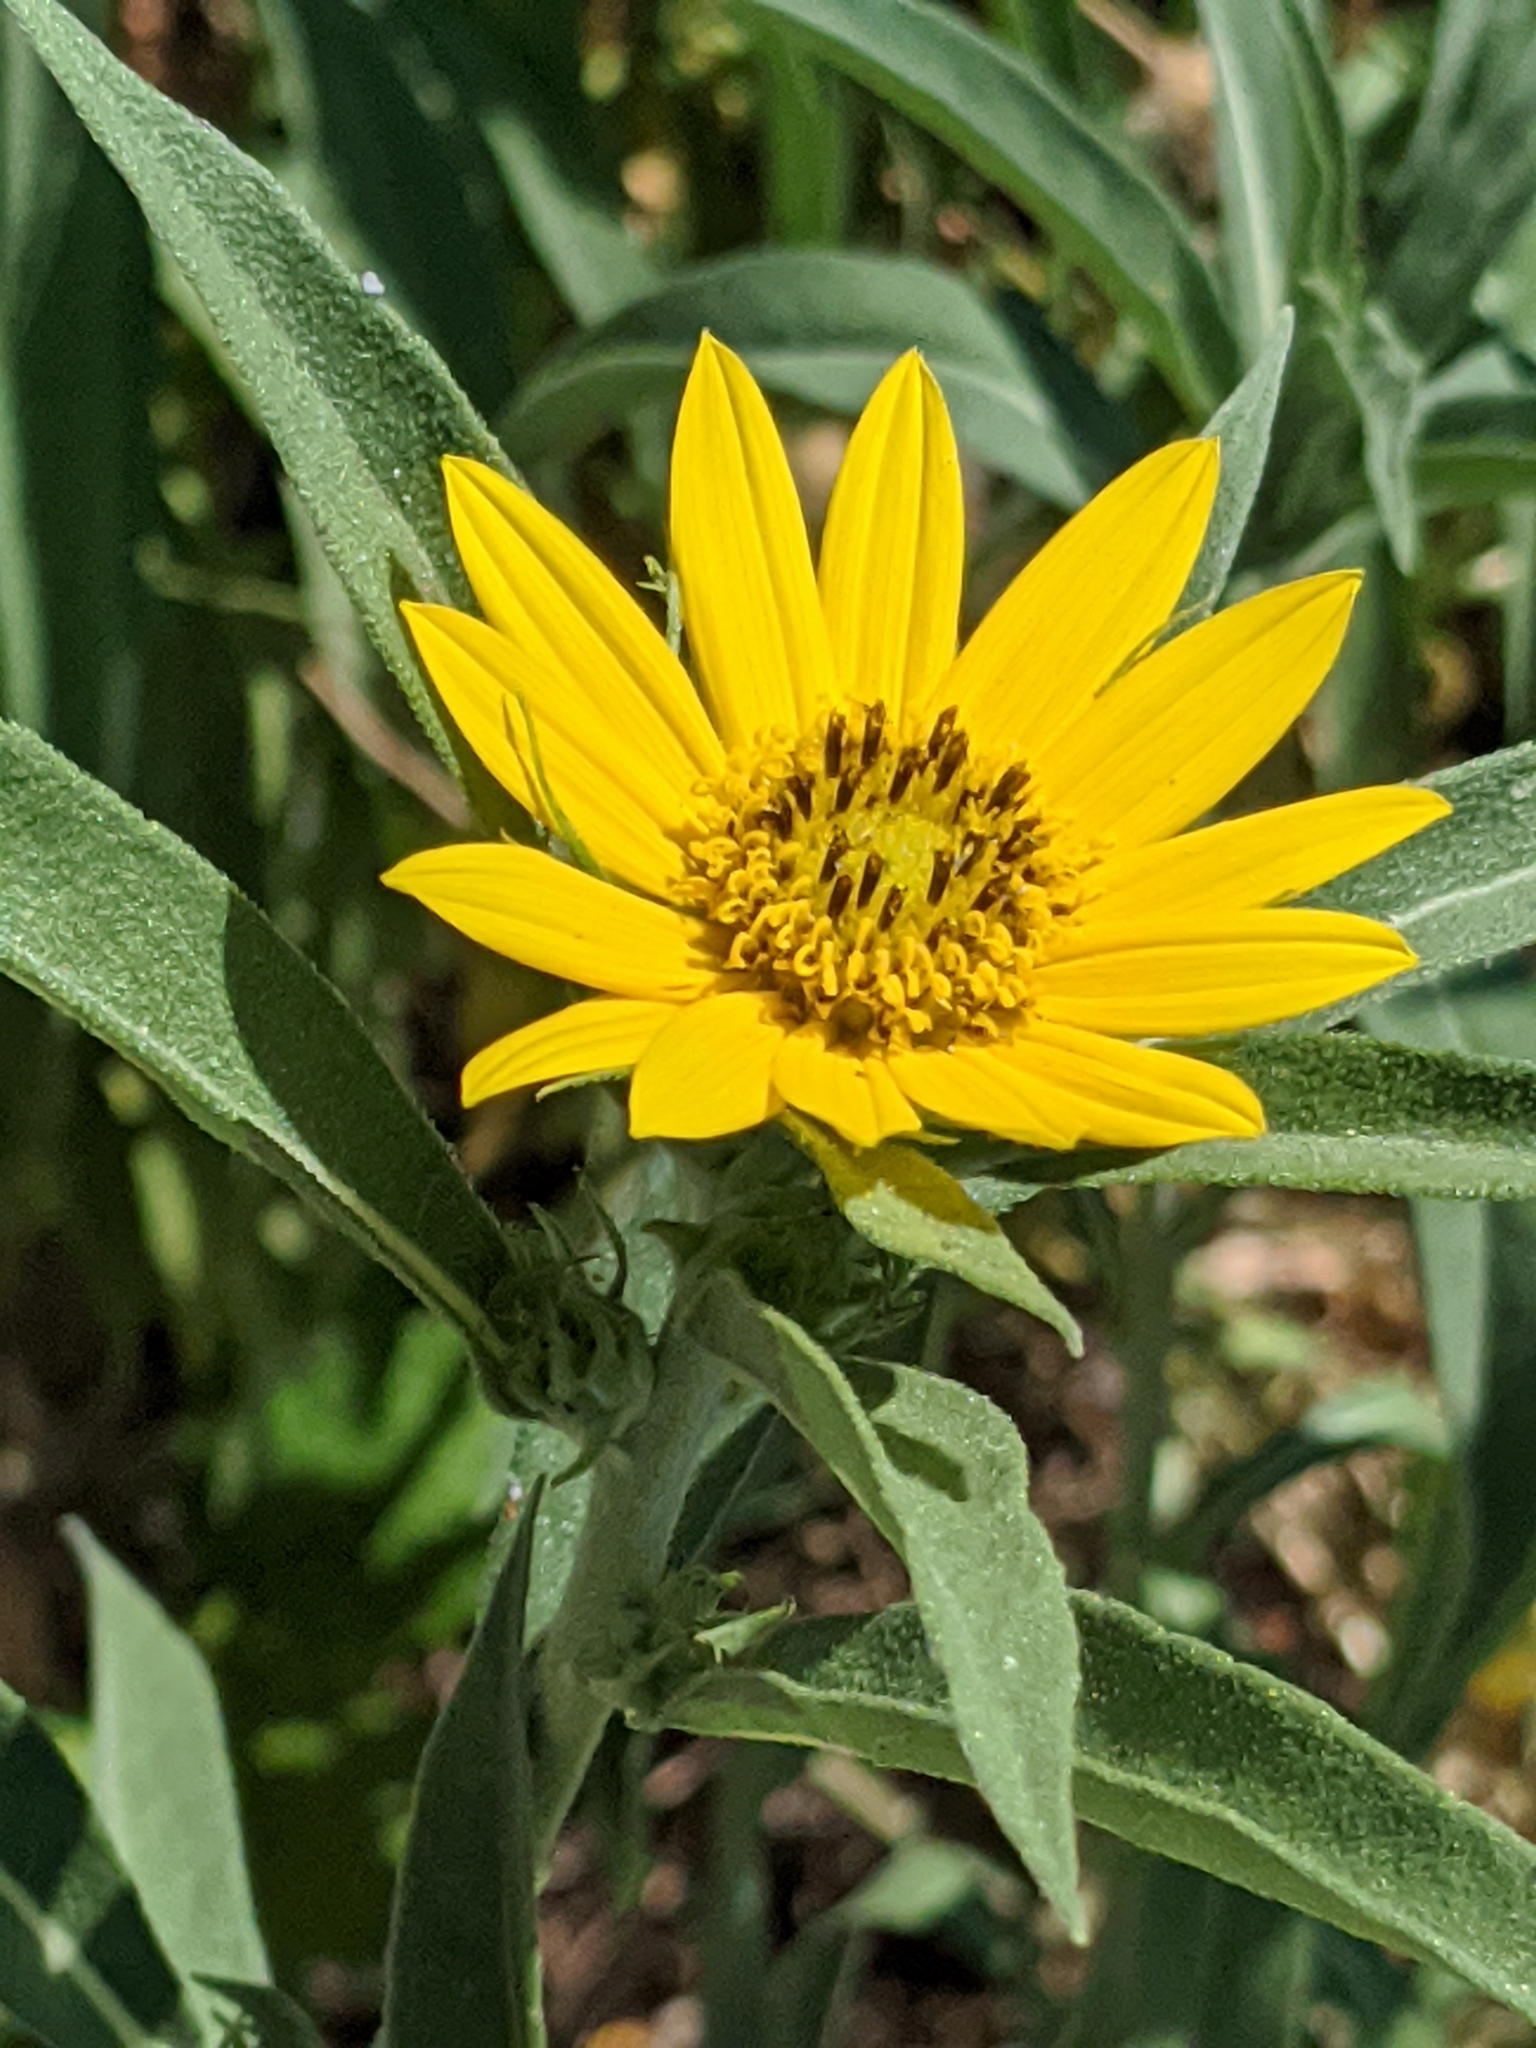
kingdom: Plantae
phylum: Tracheophyta
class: Magnoliopsida
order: Asterales
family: Asteraceae
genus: Helianthus
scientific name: Helianthus maximiliani
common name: Maximilian's sunflower
